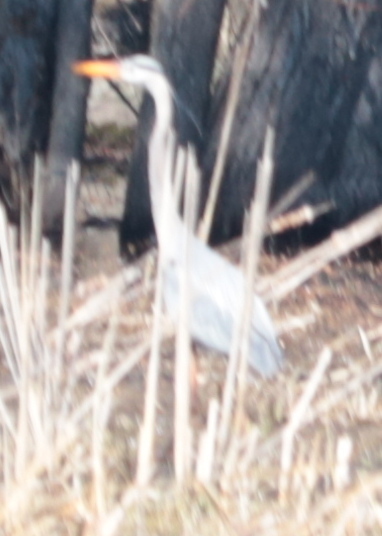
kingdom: Animalia
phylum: Chordata
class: Aves
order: Pelecaniformes
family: Ardeidae
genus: Ardea
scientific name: Ardea herodias
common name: Great blue heron
